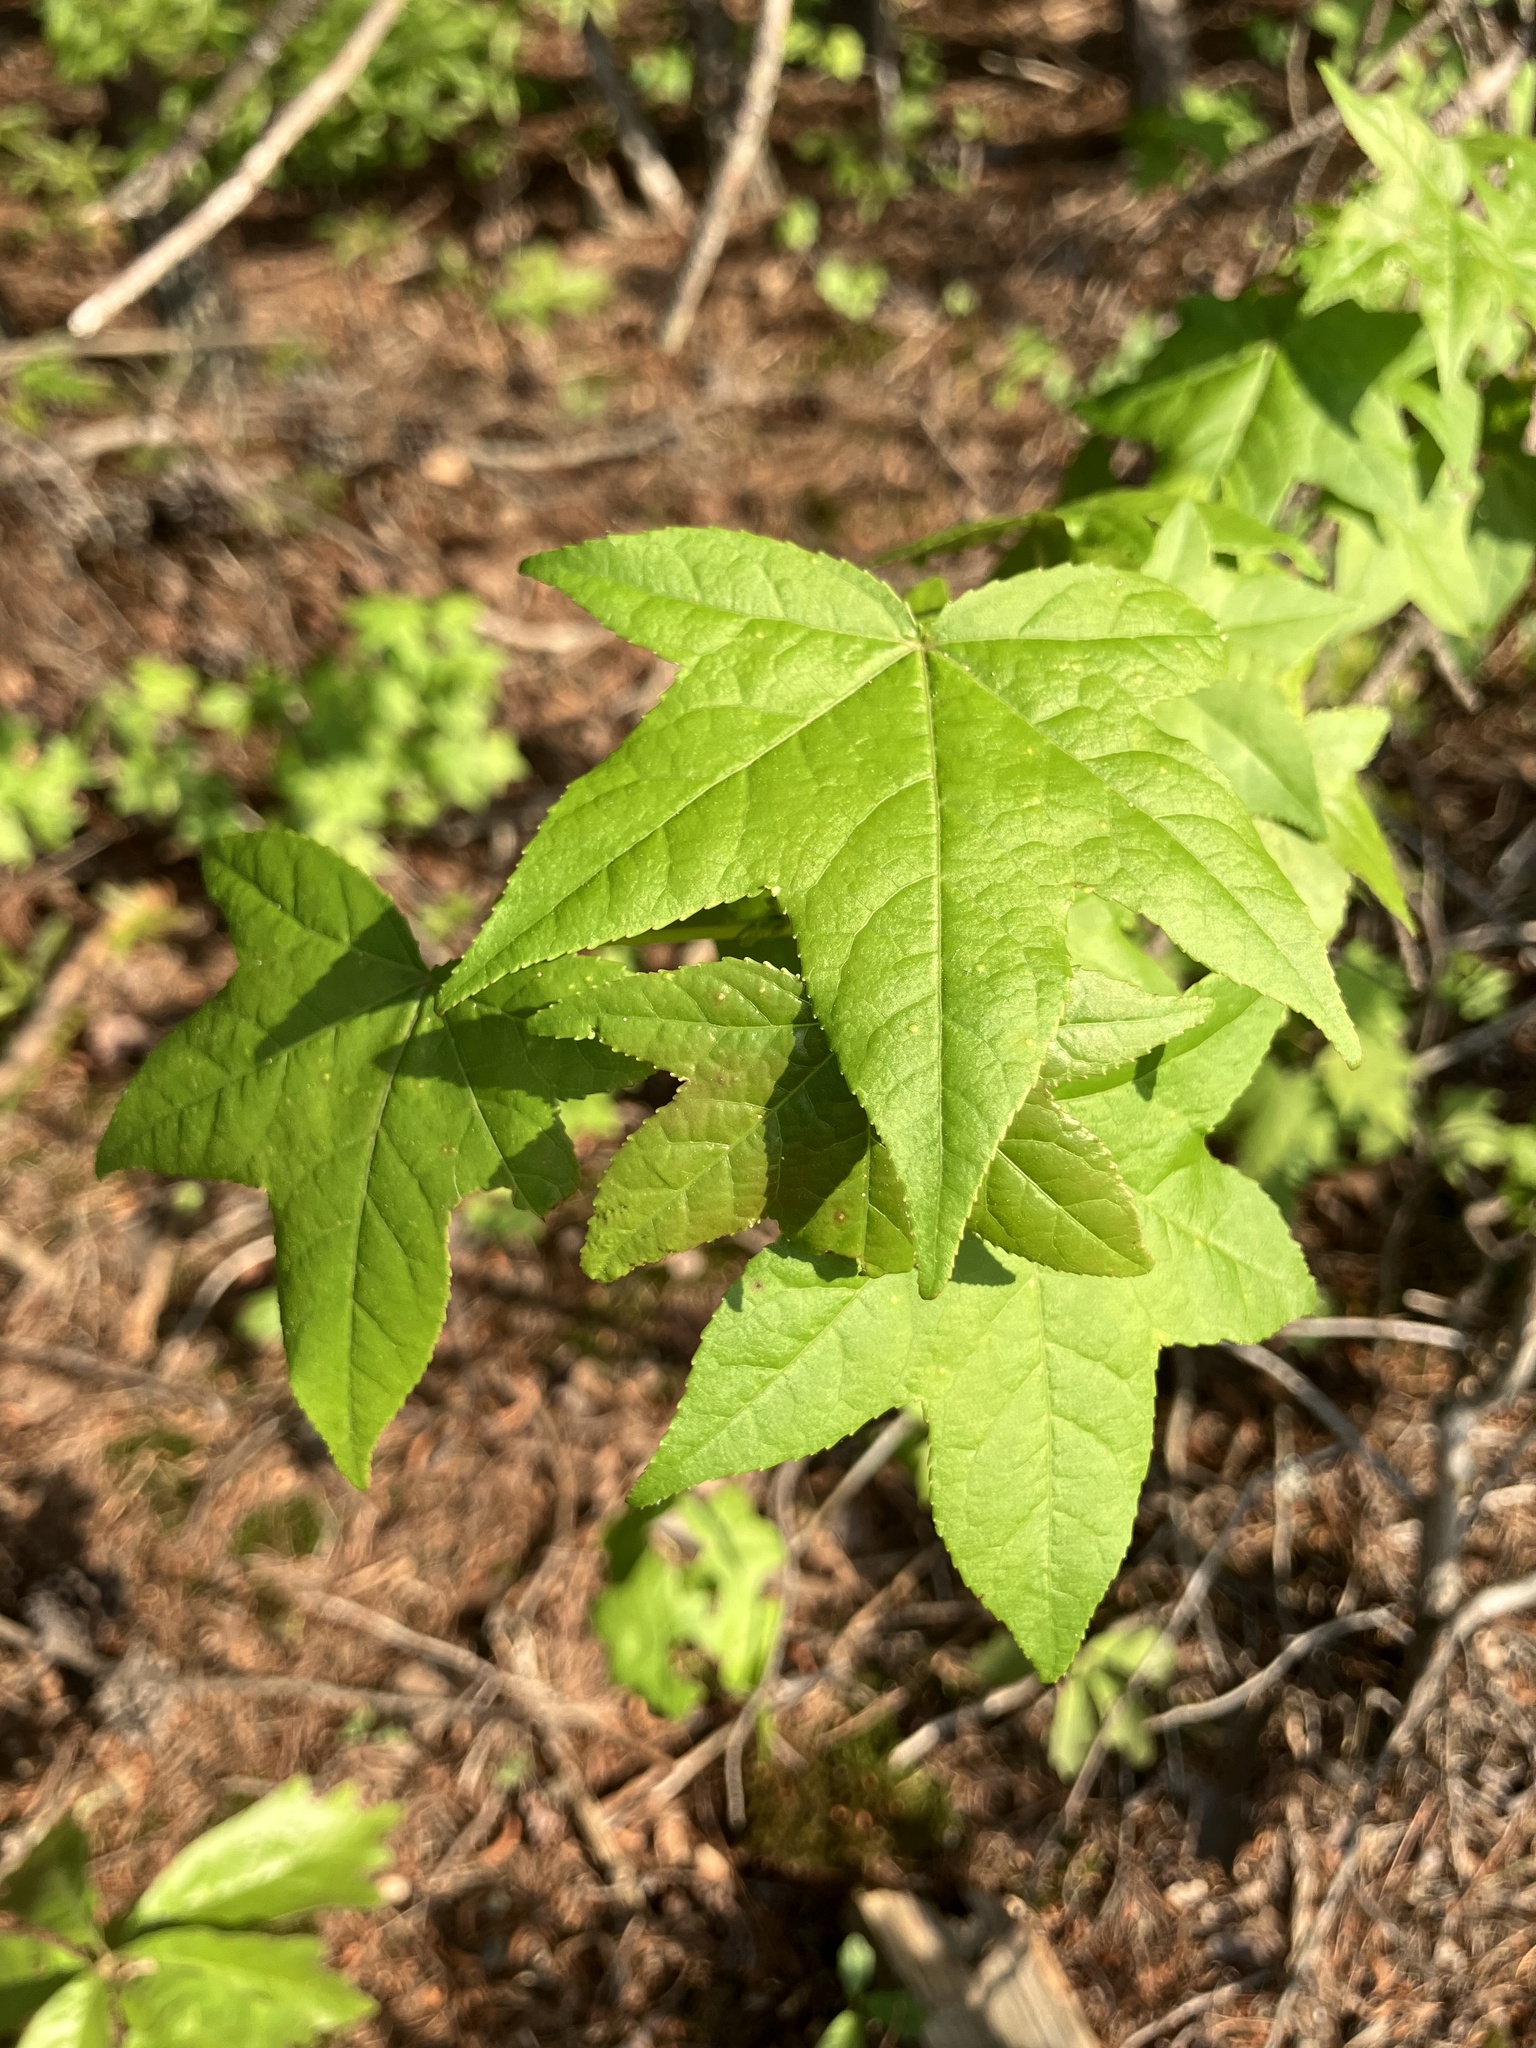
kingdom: Plantae
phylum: Tracheophyta
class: Magnoliopsida
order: Saxifragales
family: Altingiaceae
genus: Liquidambar
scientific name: Liquidambar styraciflua
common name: Sweet gum
